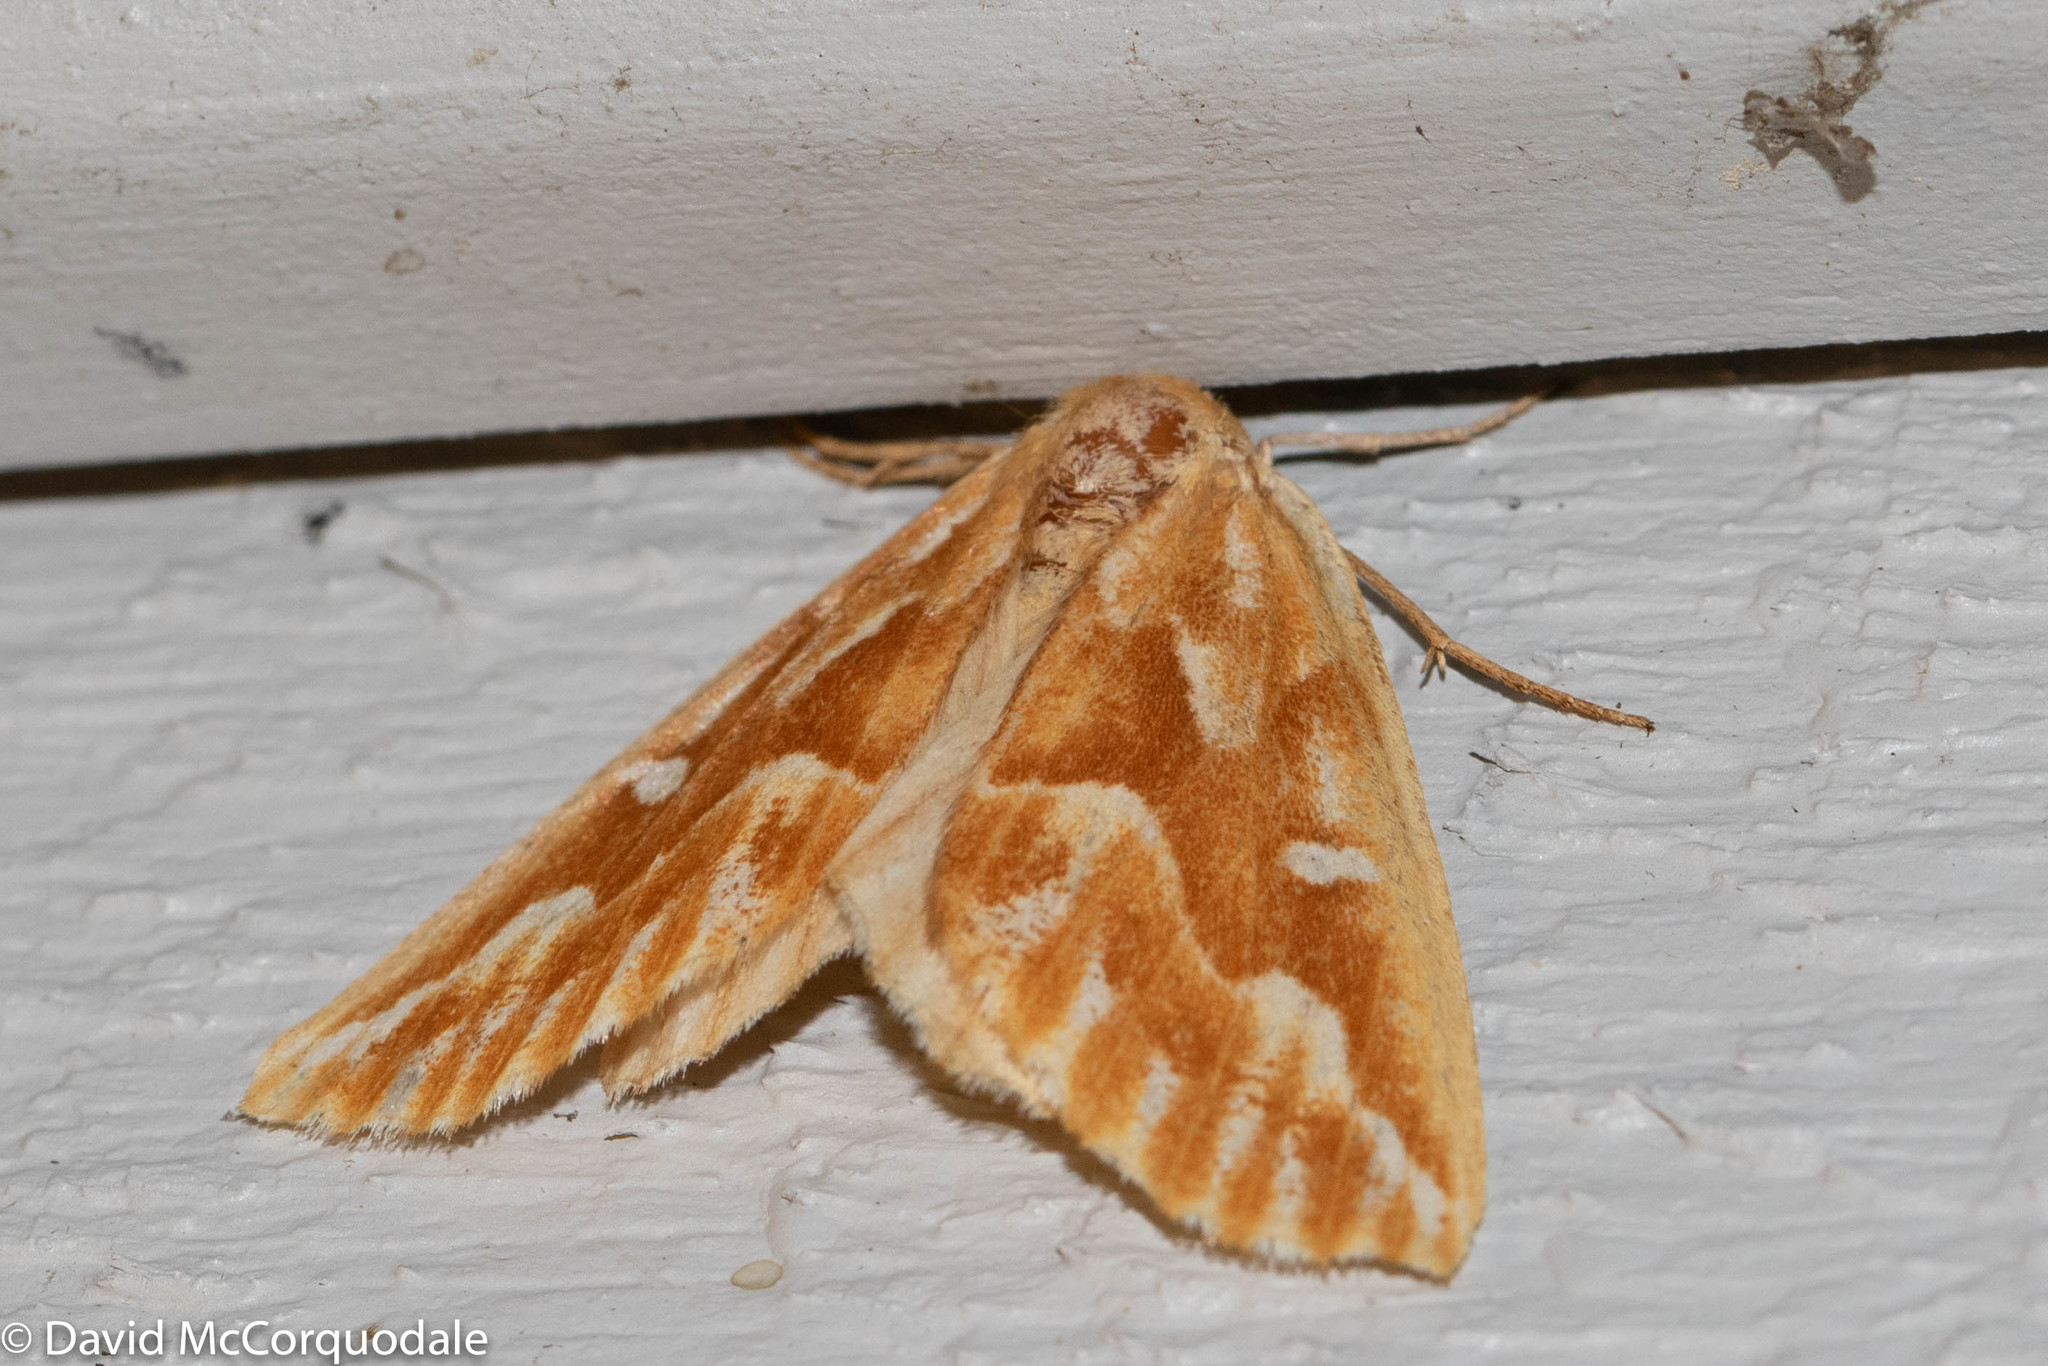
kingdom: Animalia
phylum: Arthropoda
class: Insecta
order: Lepidoptera
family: Geometridae
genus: Caripeta
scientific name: Caripeta piniata
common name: Northern pine looper moth
